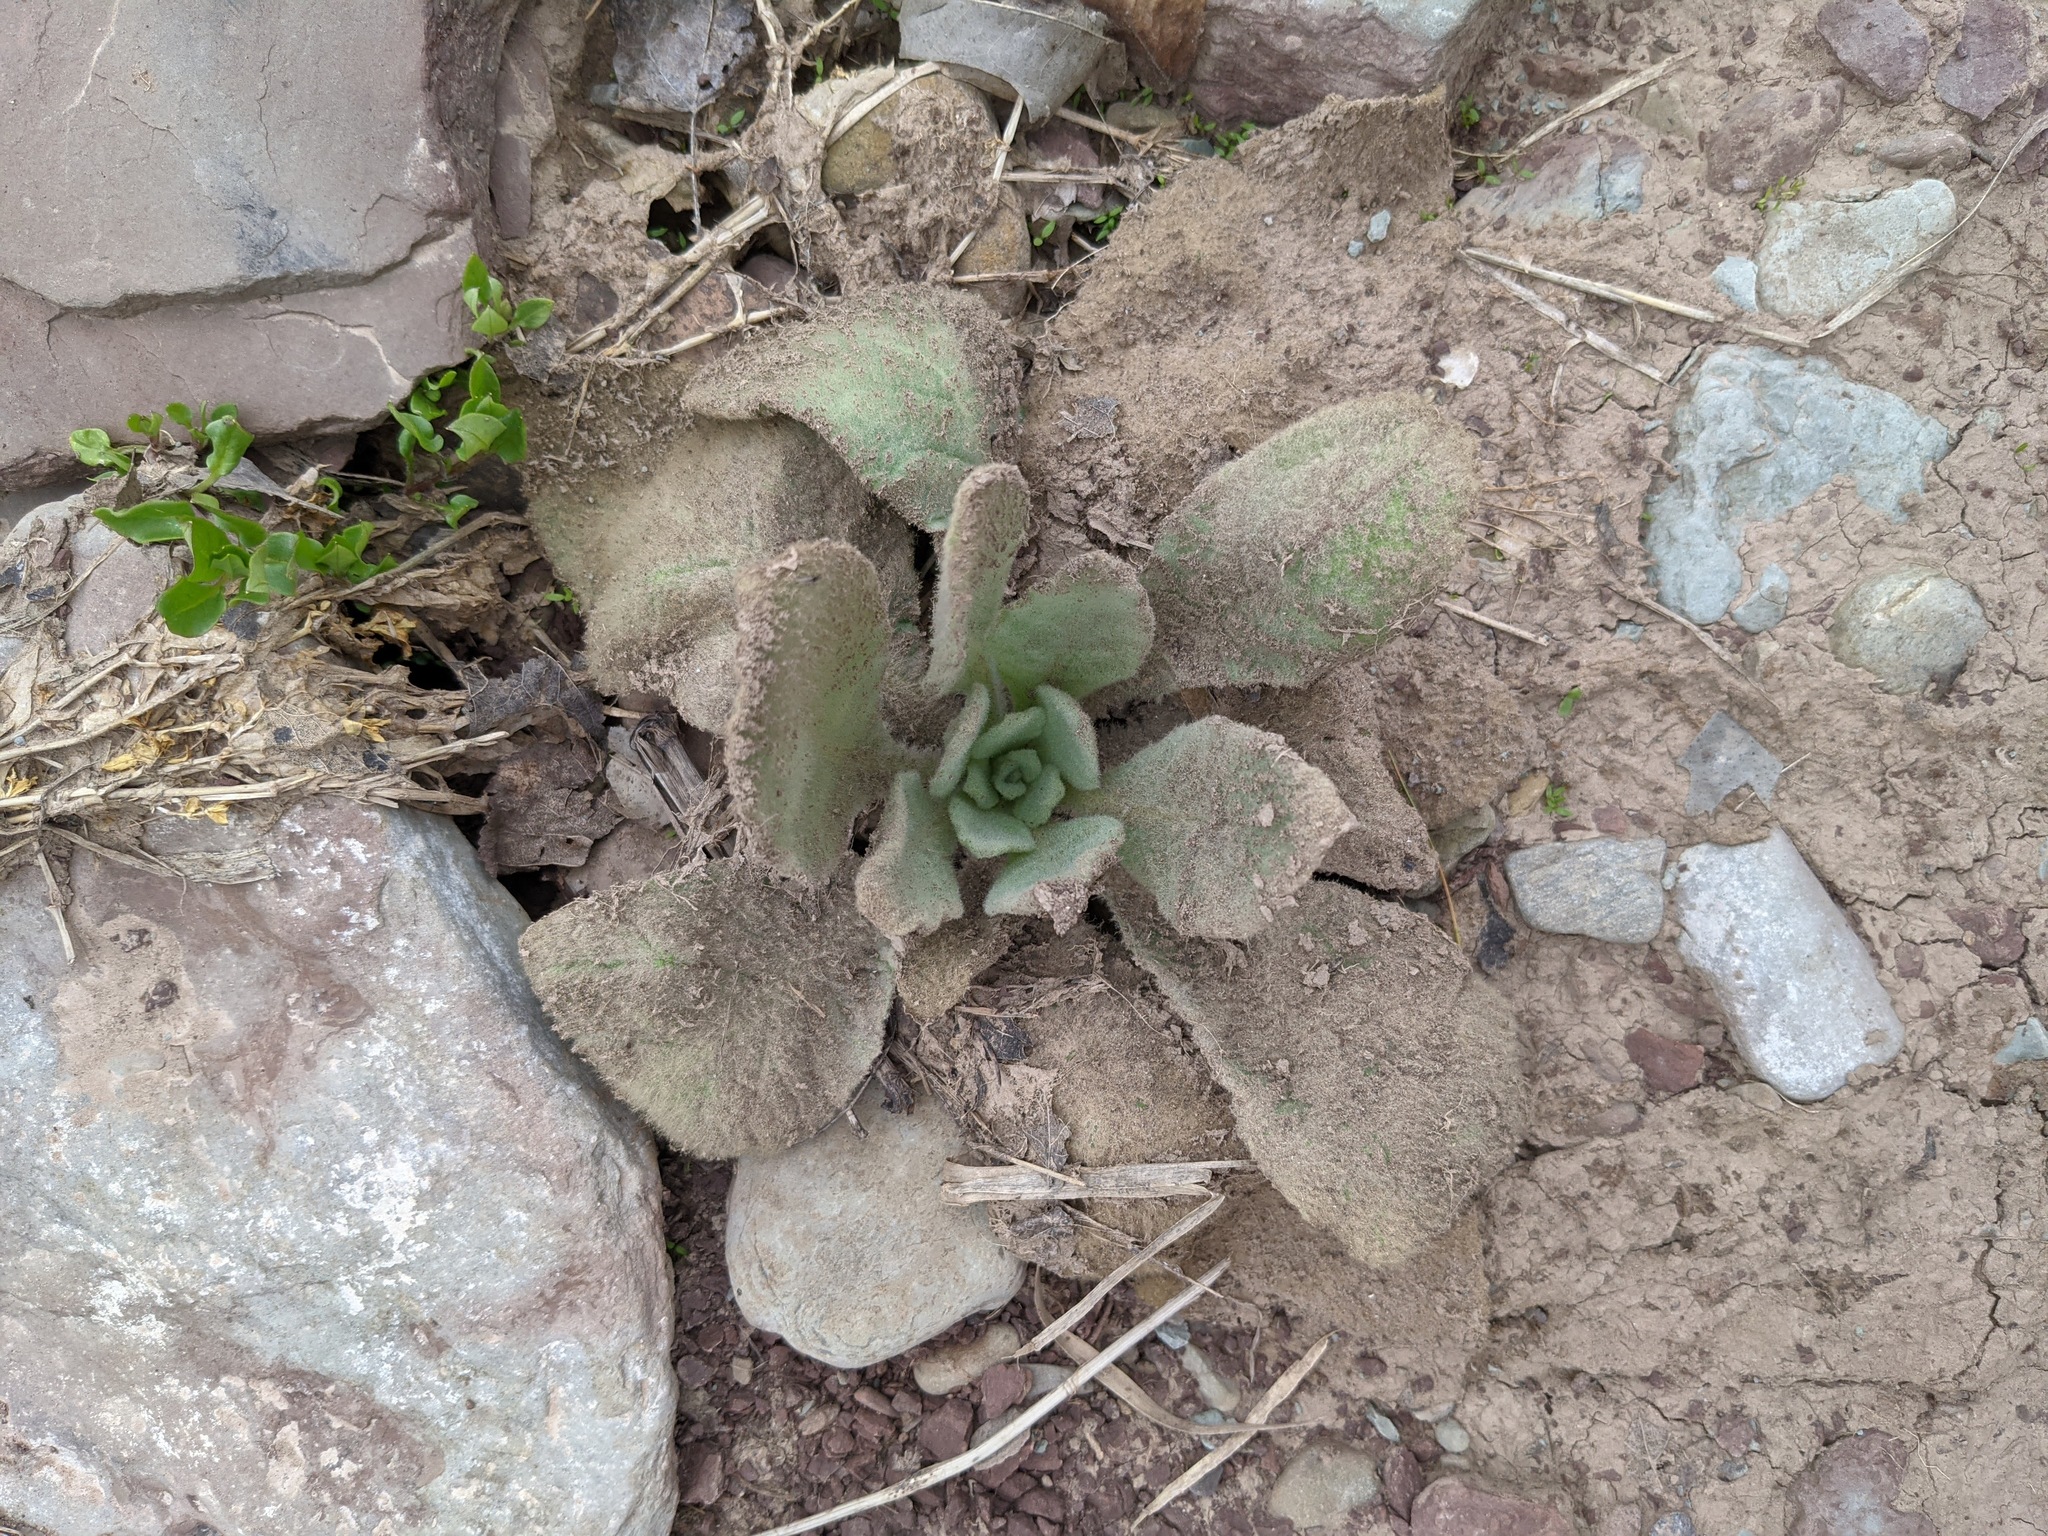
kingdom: Plantae
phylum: Tracheophyta
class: Magnoliopsida
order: Lamiales
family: Scrophulariaceae
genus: Verbascum
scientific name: Verbascum thapsus
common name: Common mullein
